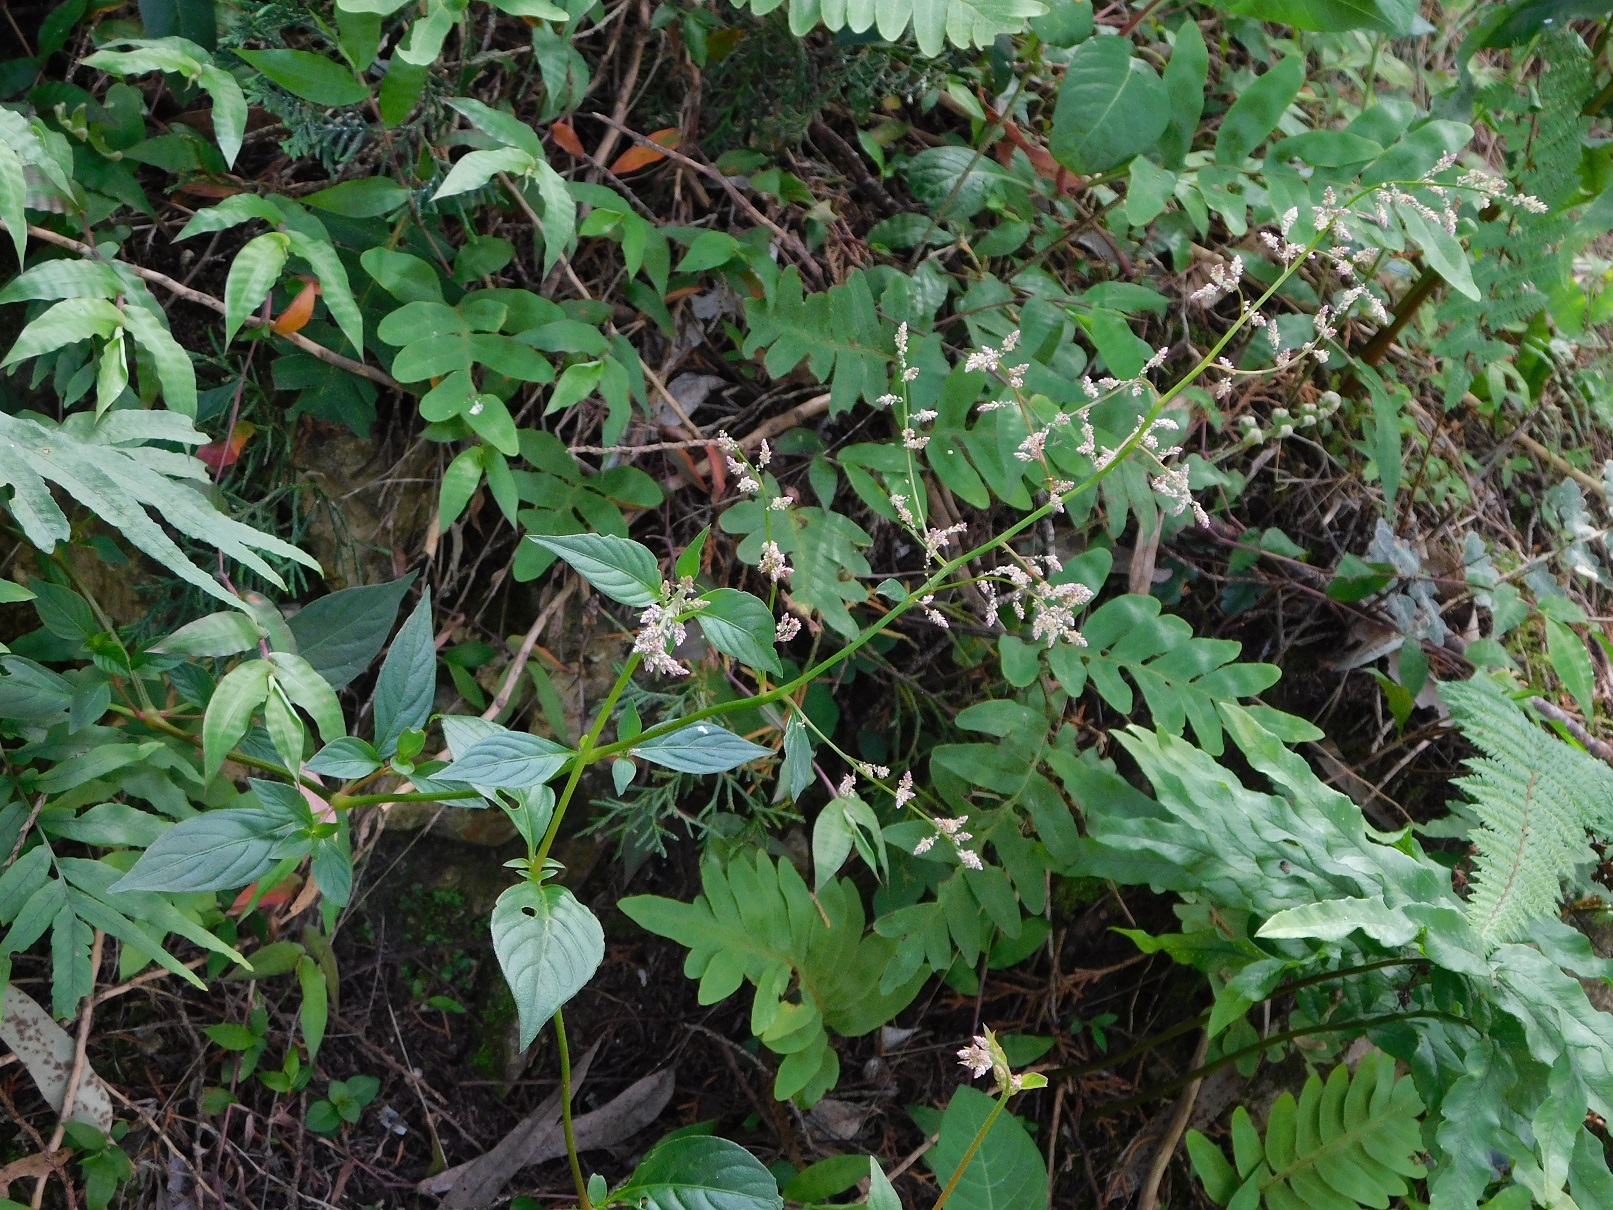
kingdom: Plantae
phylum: Tracheophyta
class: Magnoliopsida
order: Caryophyllales
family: Amaranthaceae
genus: Iresine
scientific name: Iresine diffusa
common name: Juba's-bush
